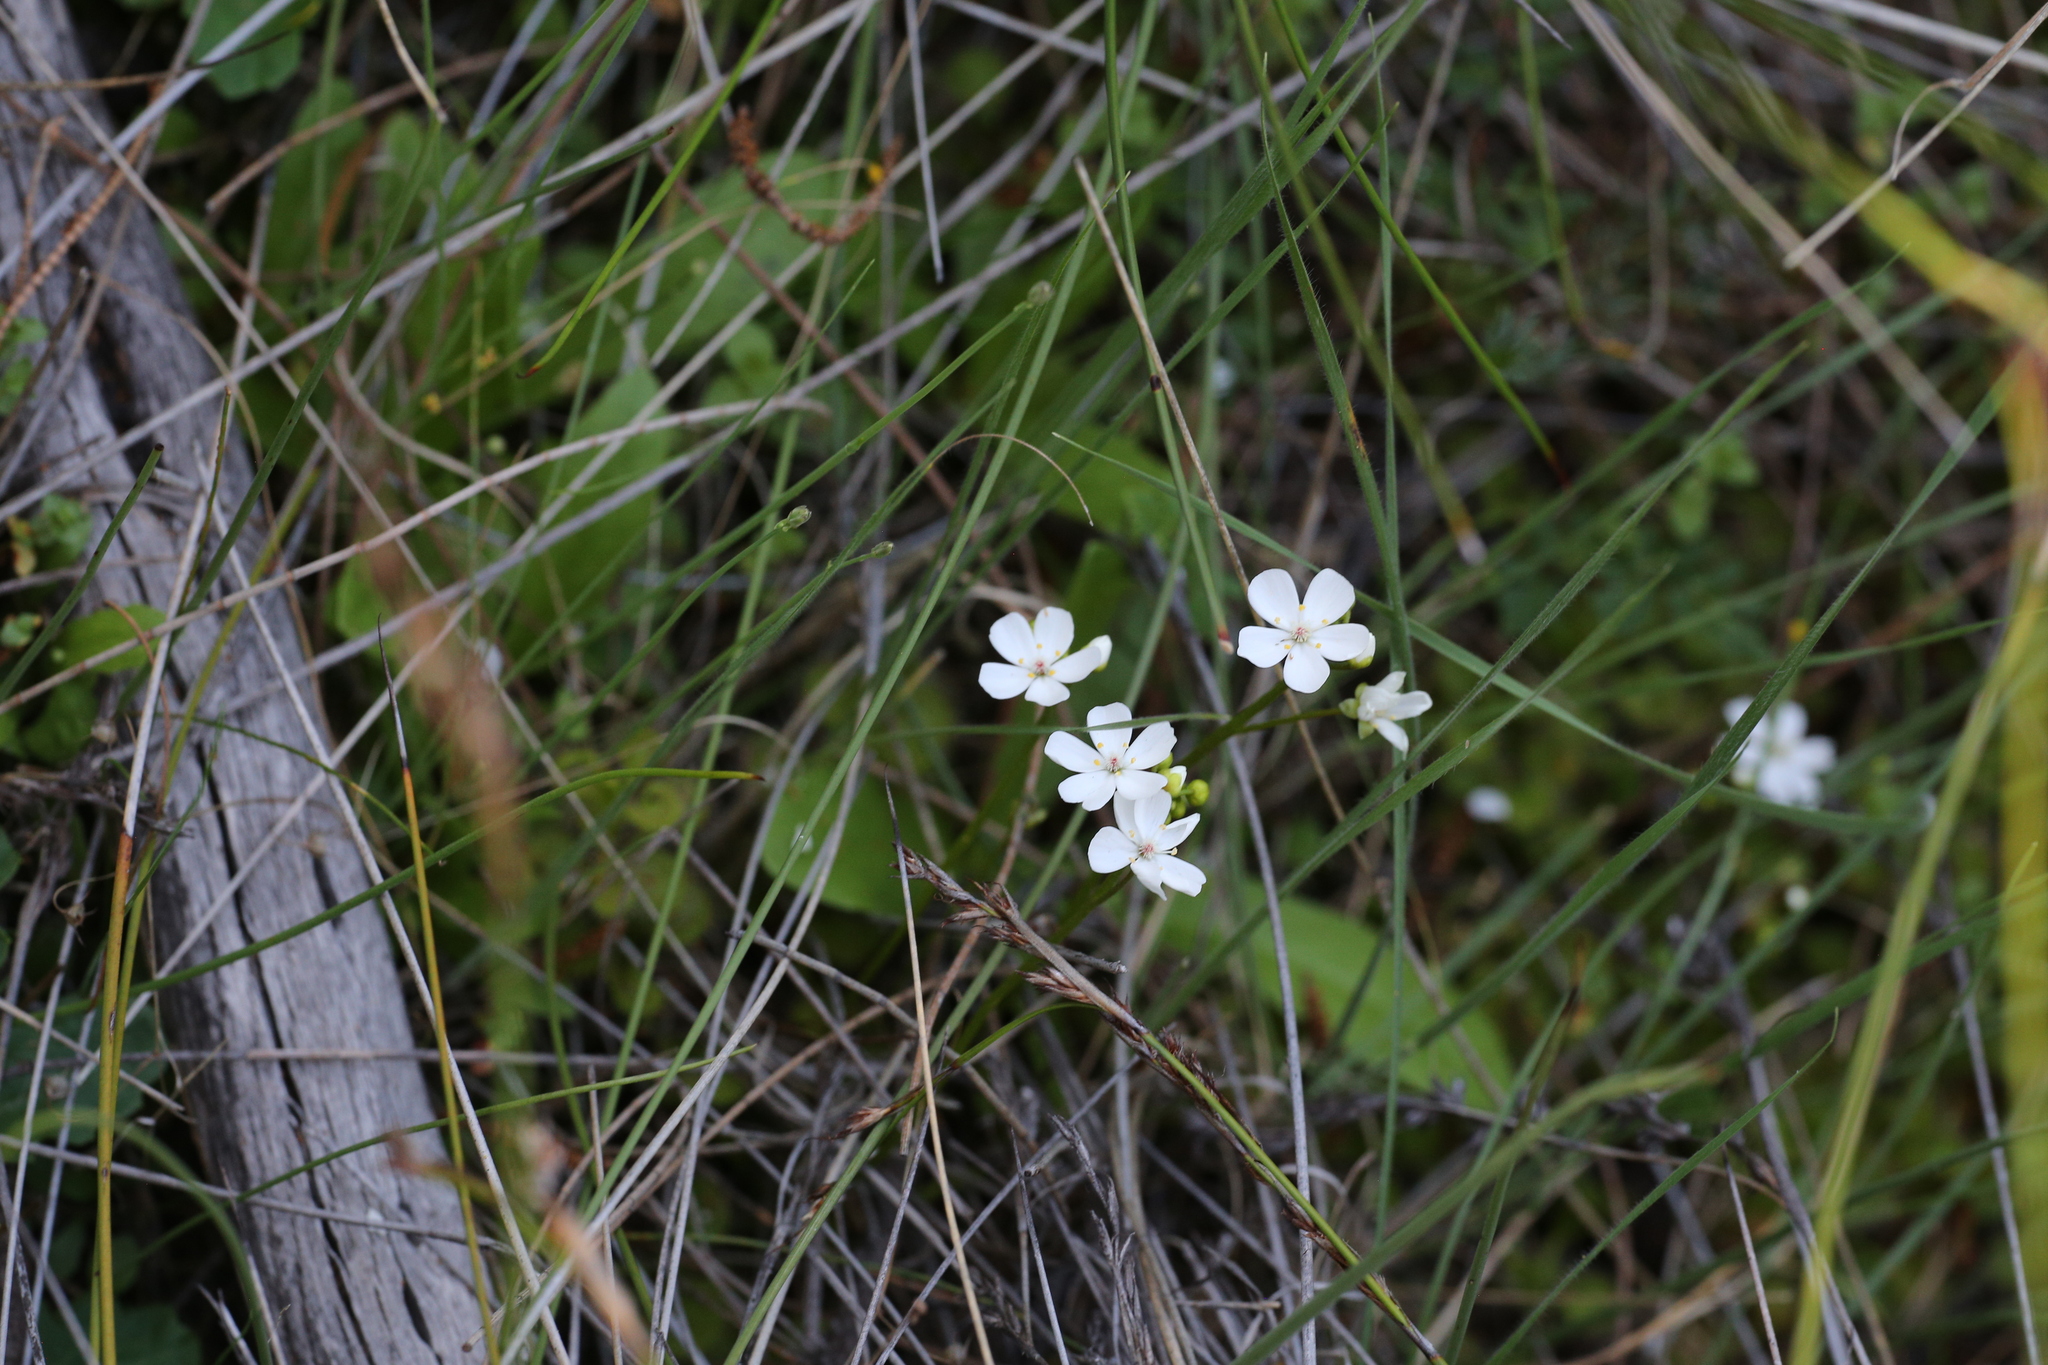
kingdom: Plantae
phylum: Tracheophyta
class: Magnoliopsida
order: Caryophyllales
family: Droseraceae
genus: Drosera
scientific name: Drosera rupicola
